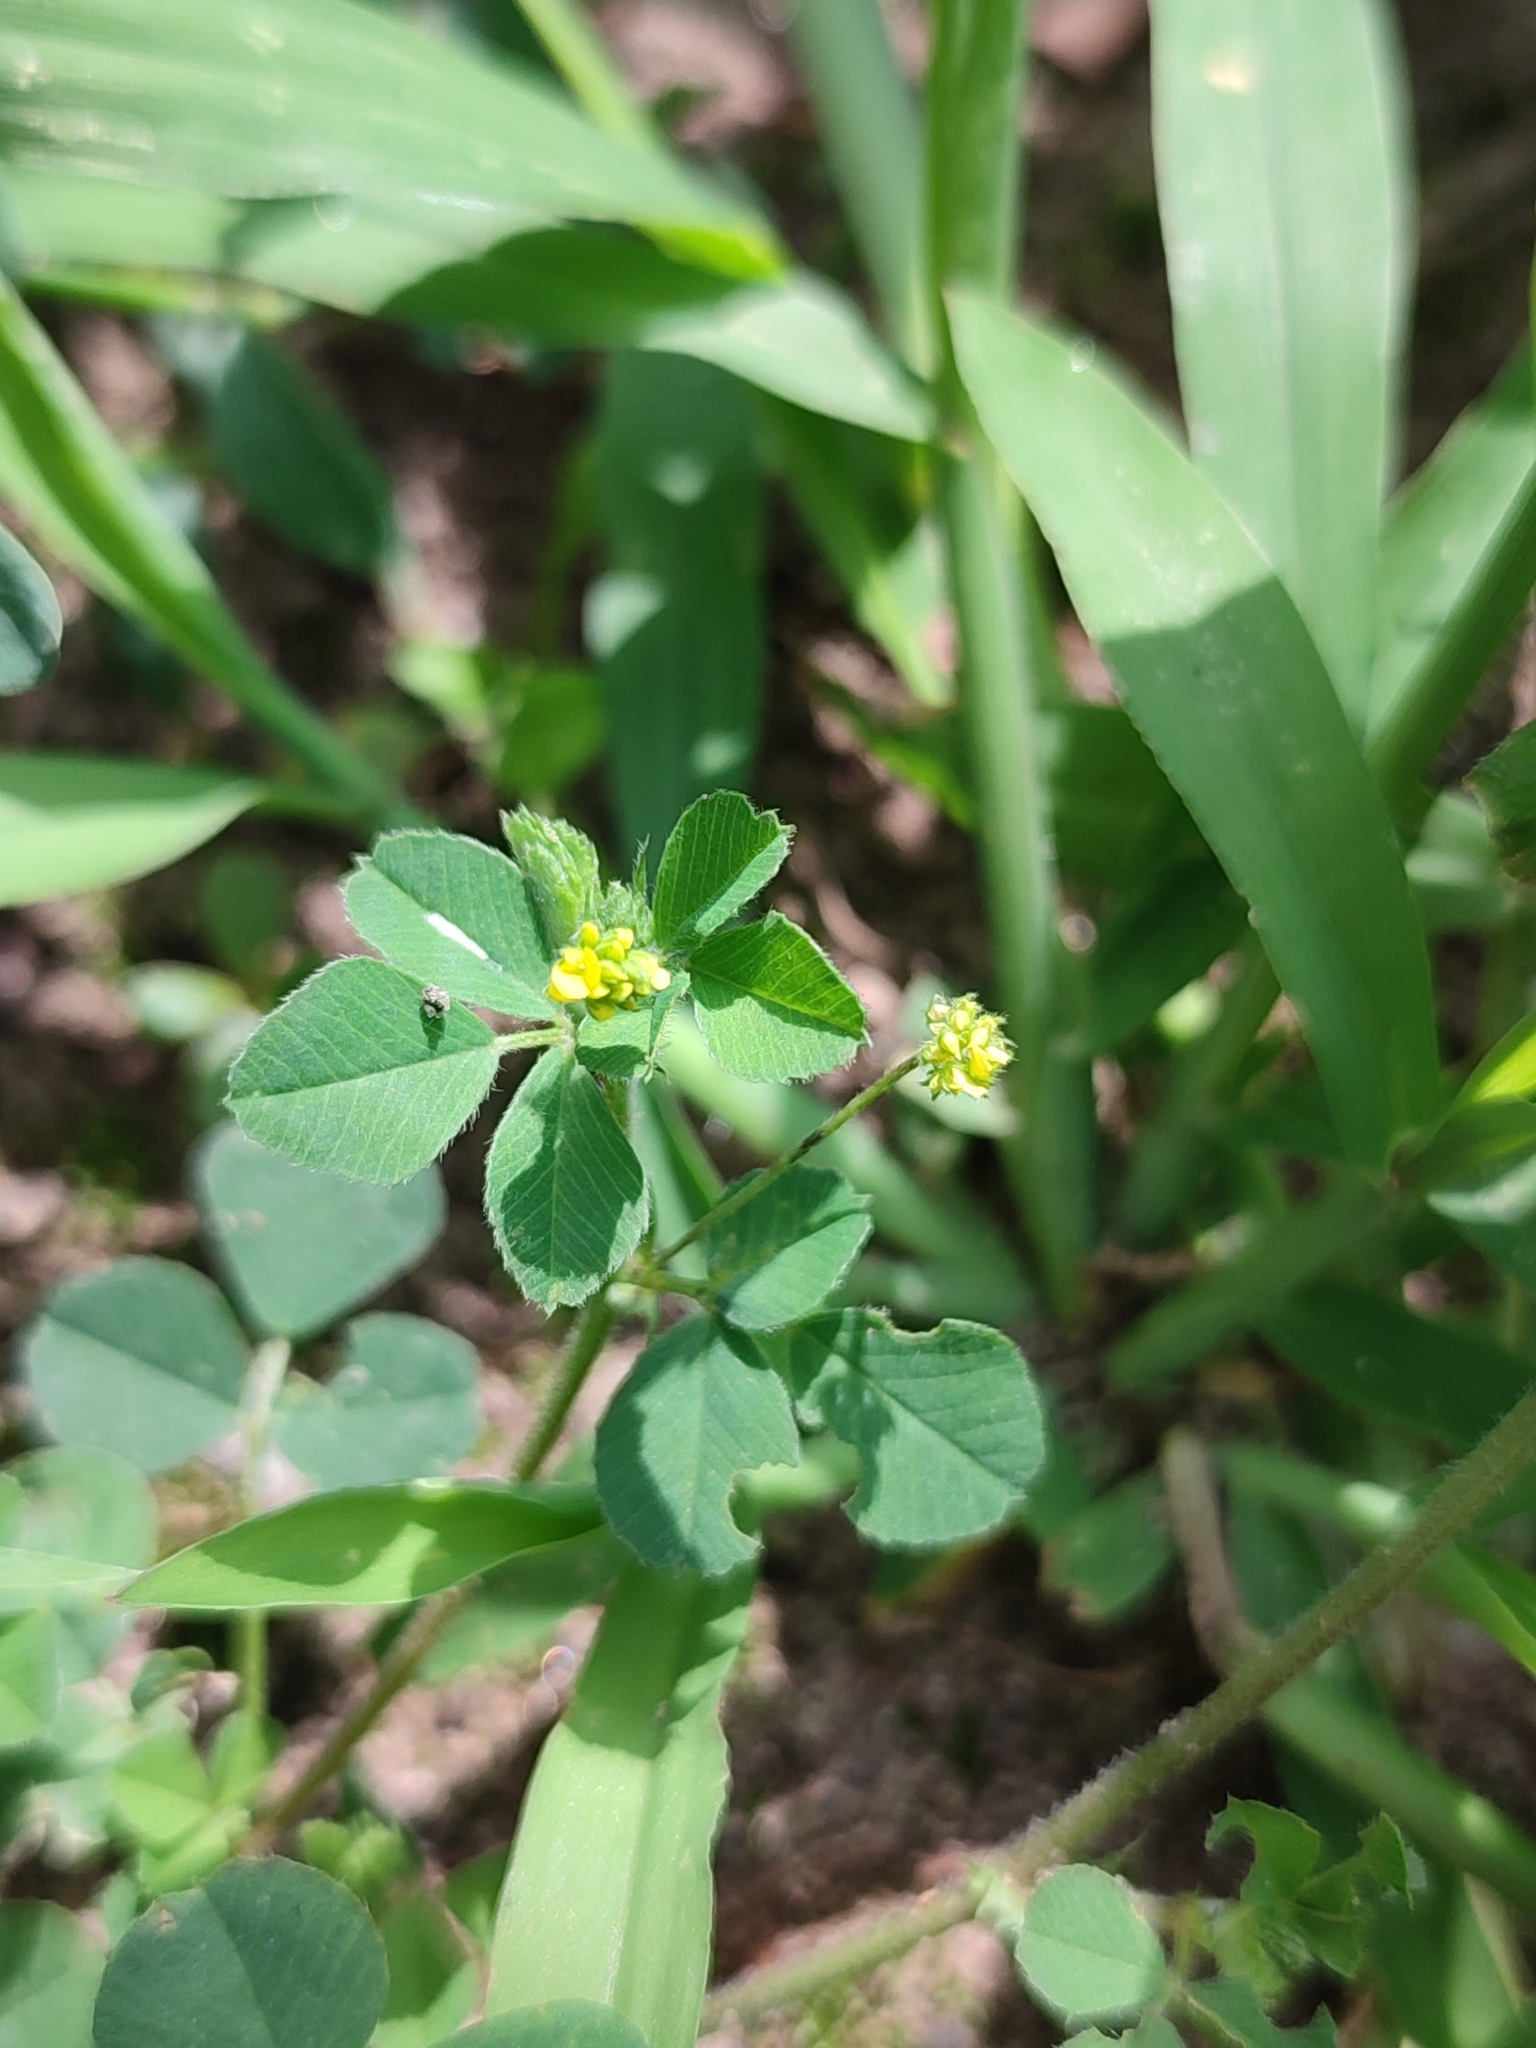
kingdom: Plantae
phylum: Tracheophyta
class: Magnoliopsida
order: Fabales
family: Fabaceae
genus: Medicago
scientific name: Medicago lupulina
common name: Black medick
